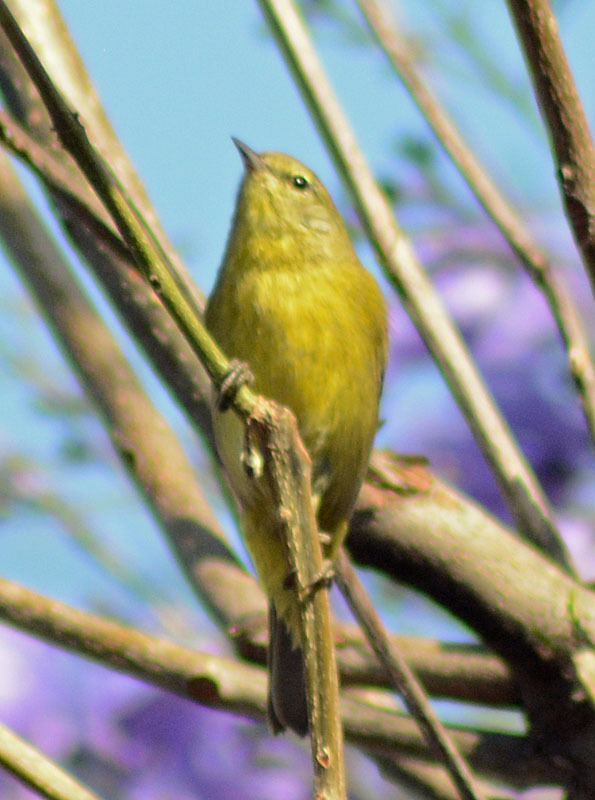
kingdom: Animalia
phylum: Chordata
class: Aves
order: Passeriformes
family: Parulidae
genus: Leiothlypis
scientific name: Leiothlypis celata
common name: Orange-crowned warbler
